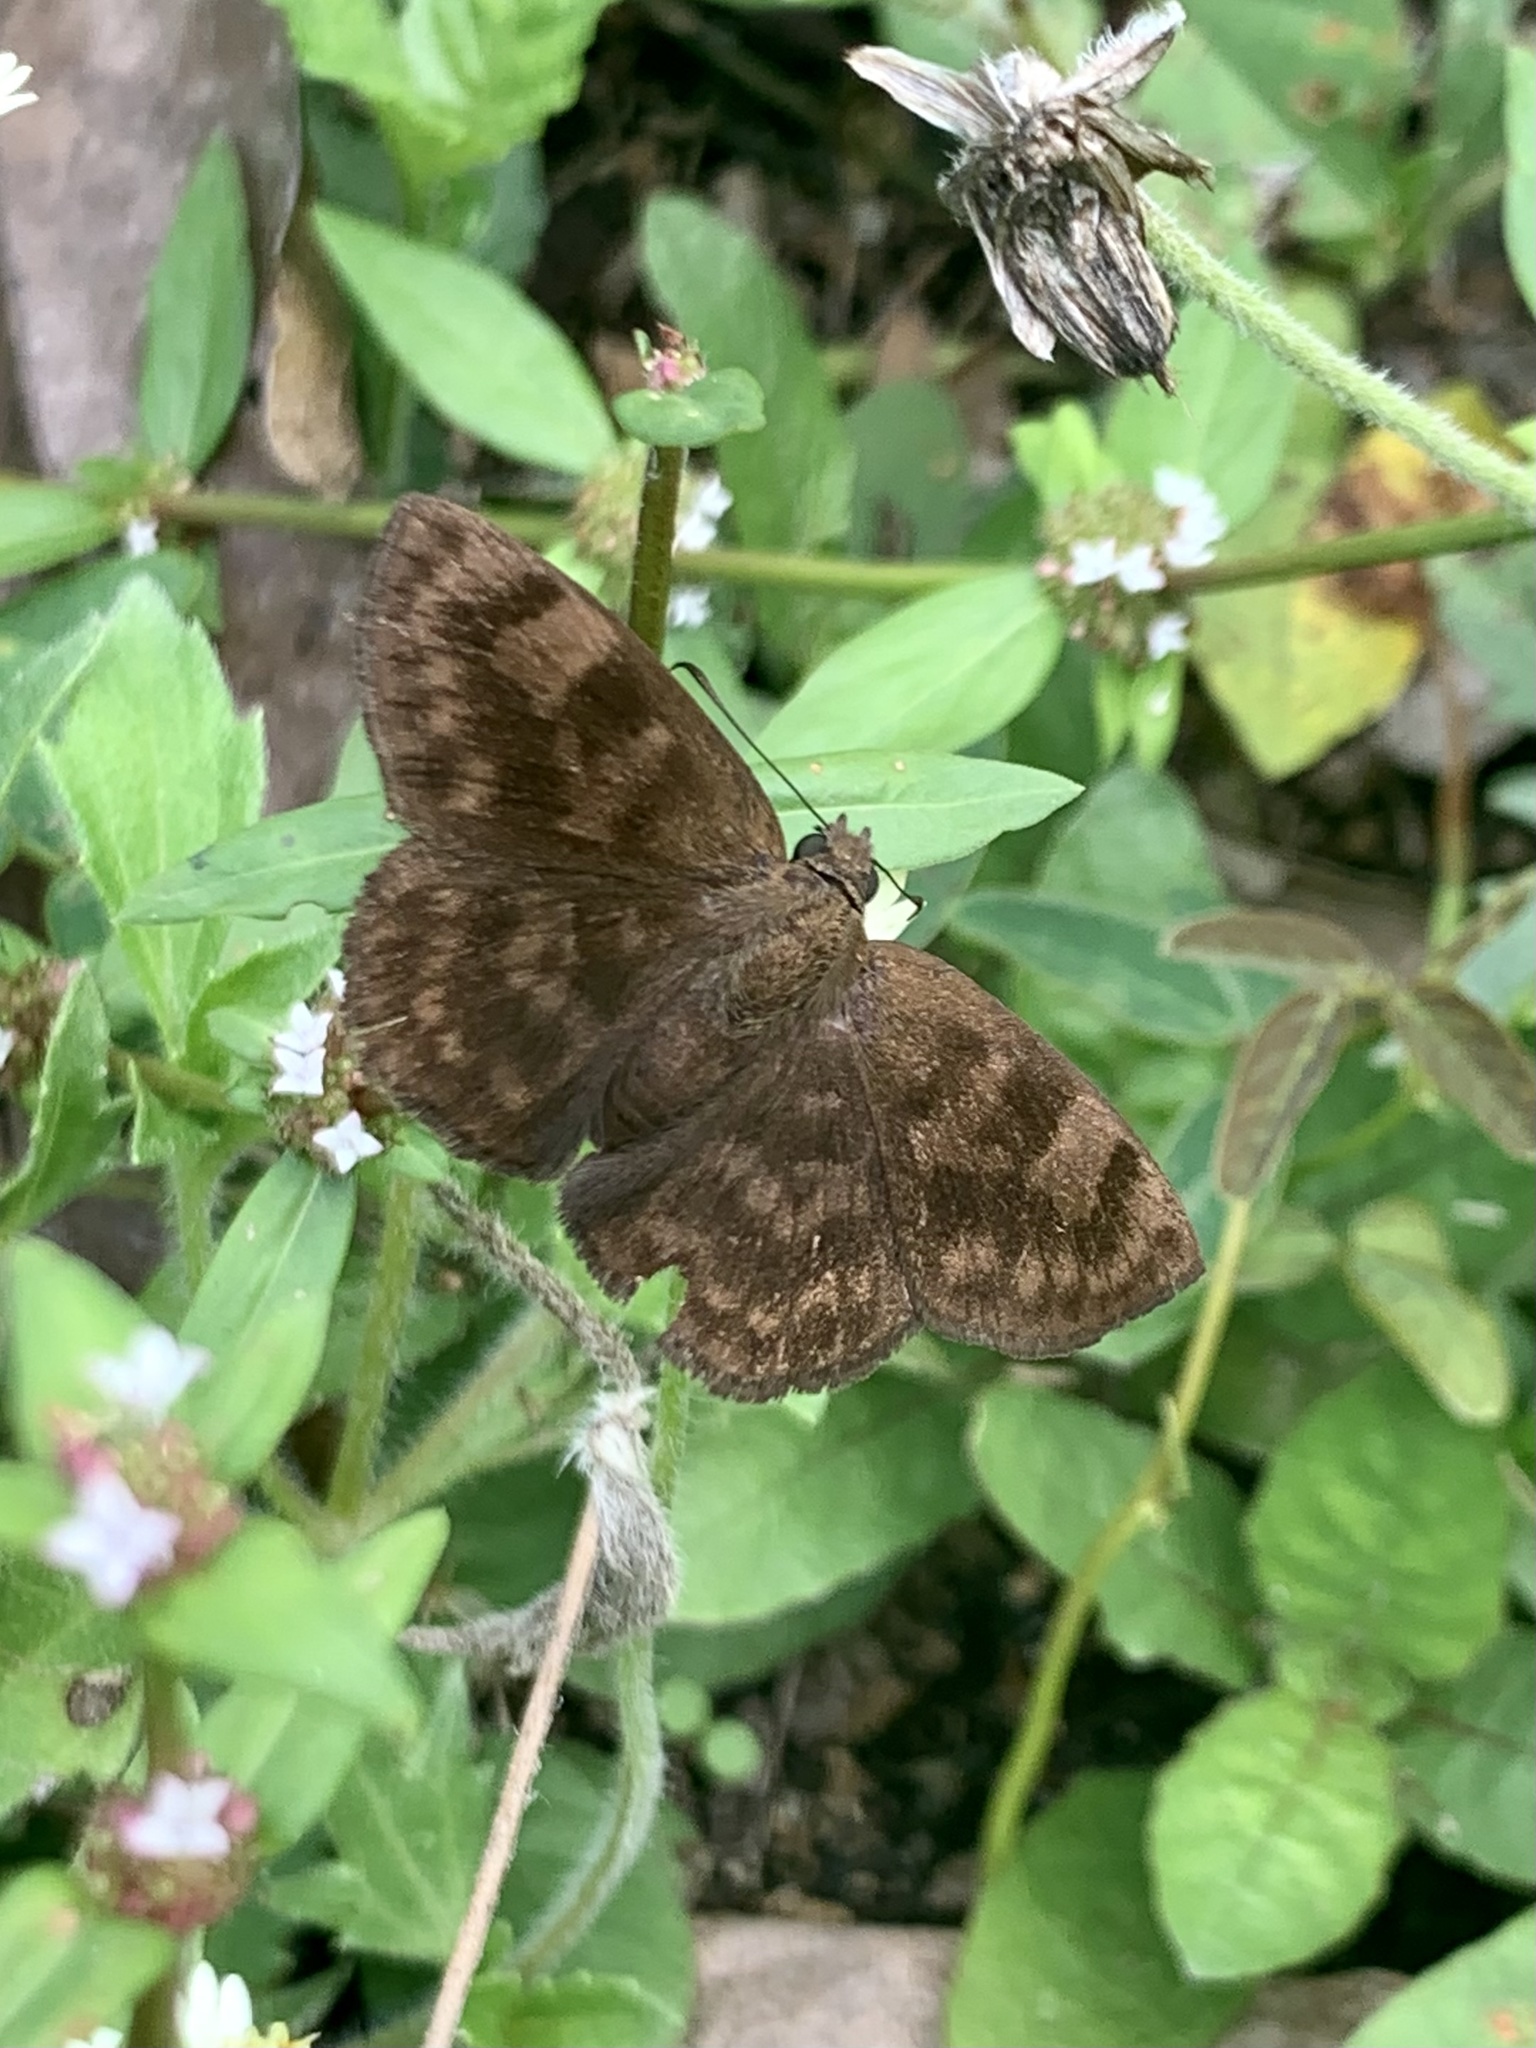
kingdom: Animalia
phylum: Arthropoda
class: Insecta
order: Lepidoptera
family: Hesperiidae
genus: Pellicia
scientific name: Pellicia dimidiata
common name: Morning glory pellicia
